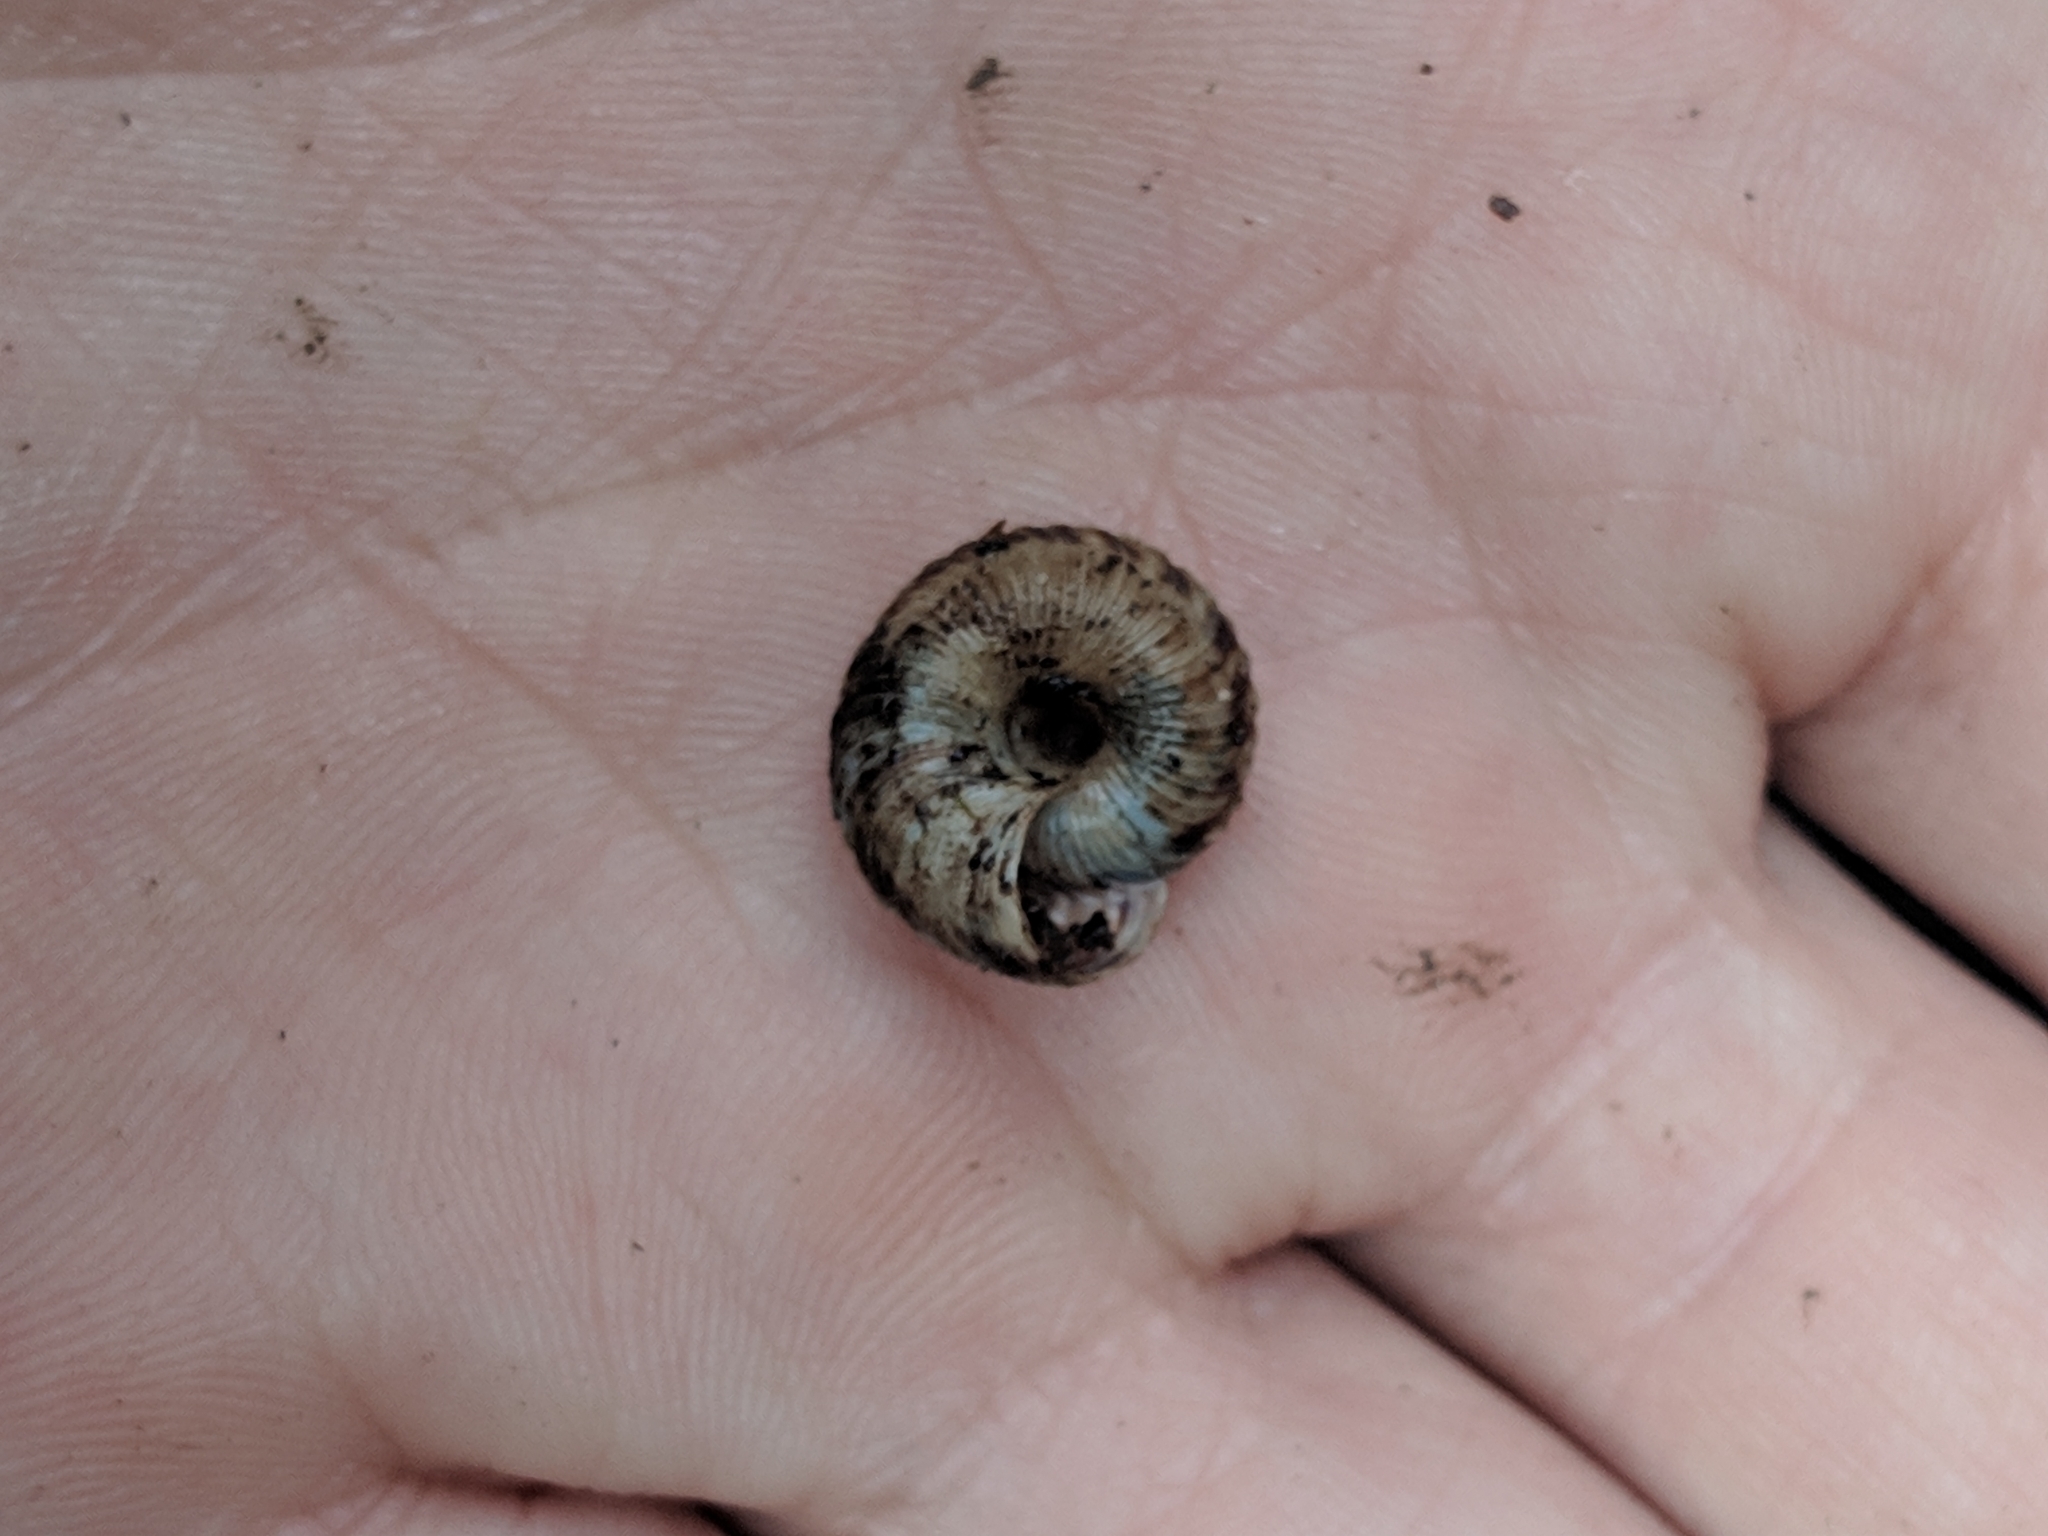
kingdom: Animalia
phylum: Mollusca
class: Gastropoda
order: Stylommatophora
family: Discidae
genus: Anguispira
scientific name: Anguispira mordax
